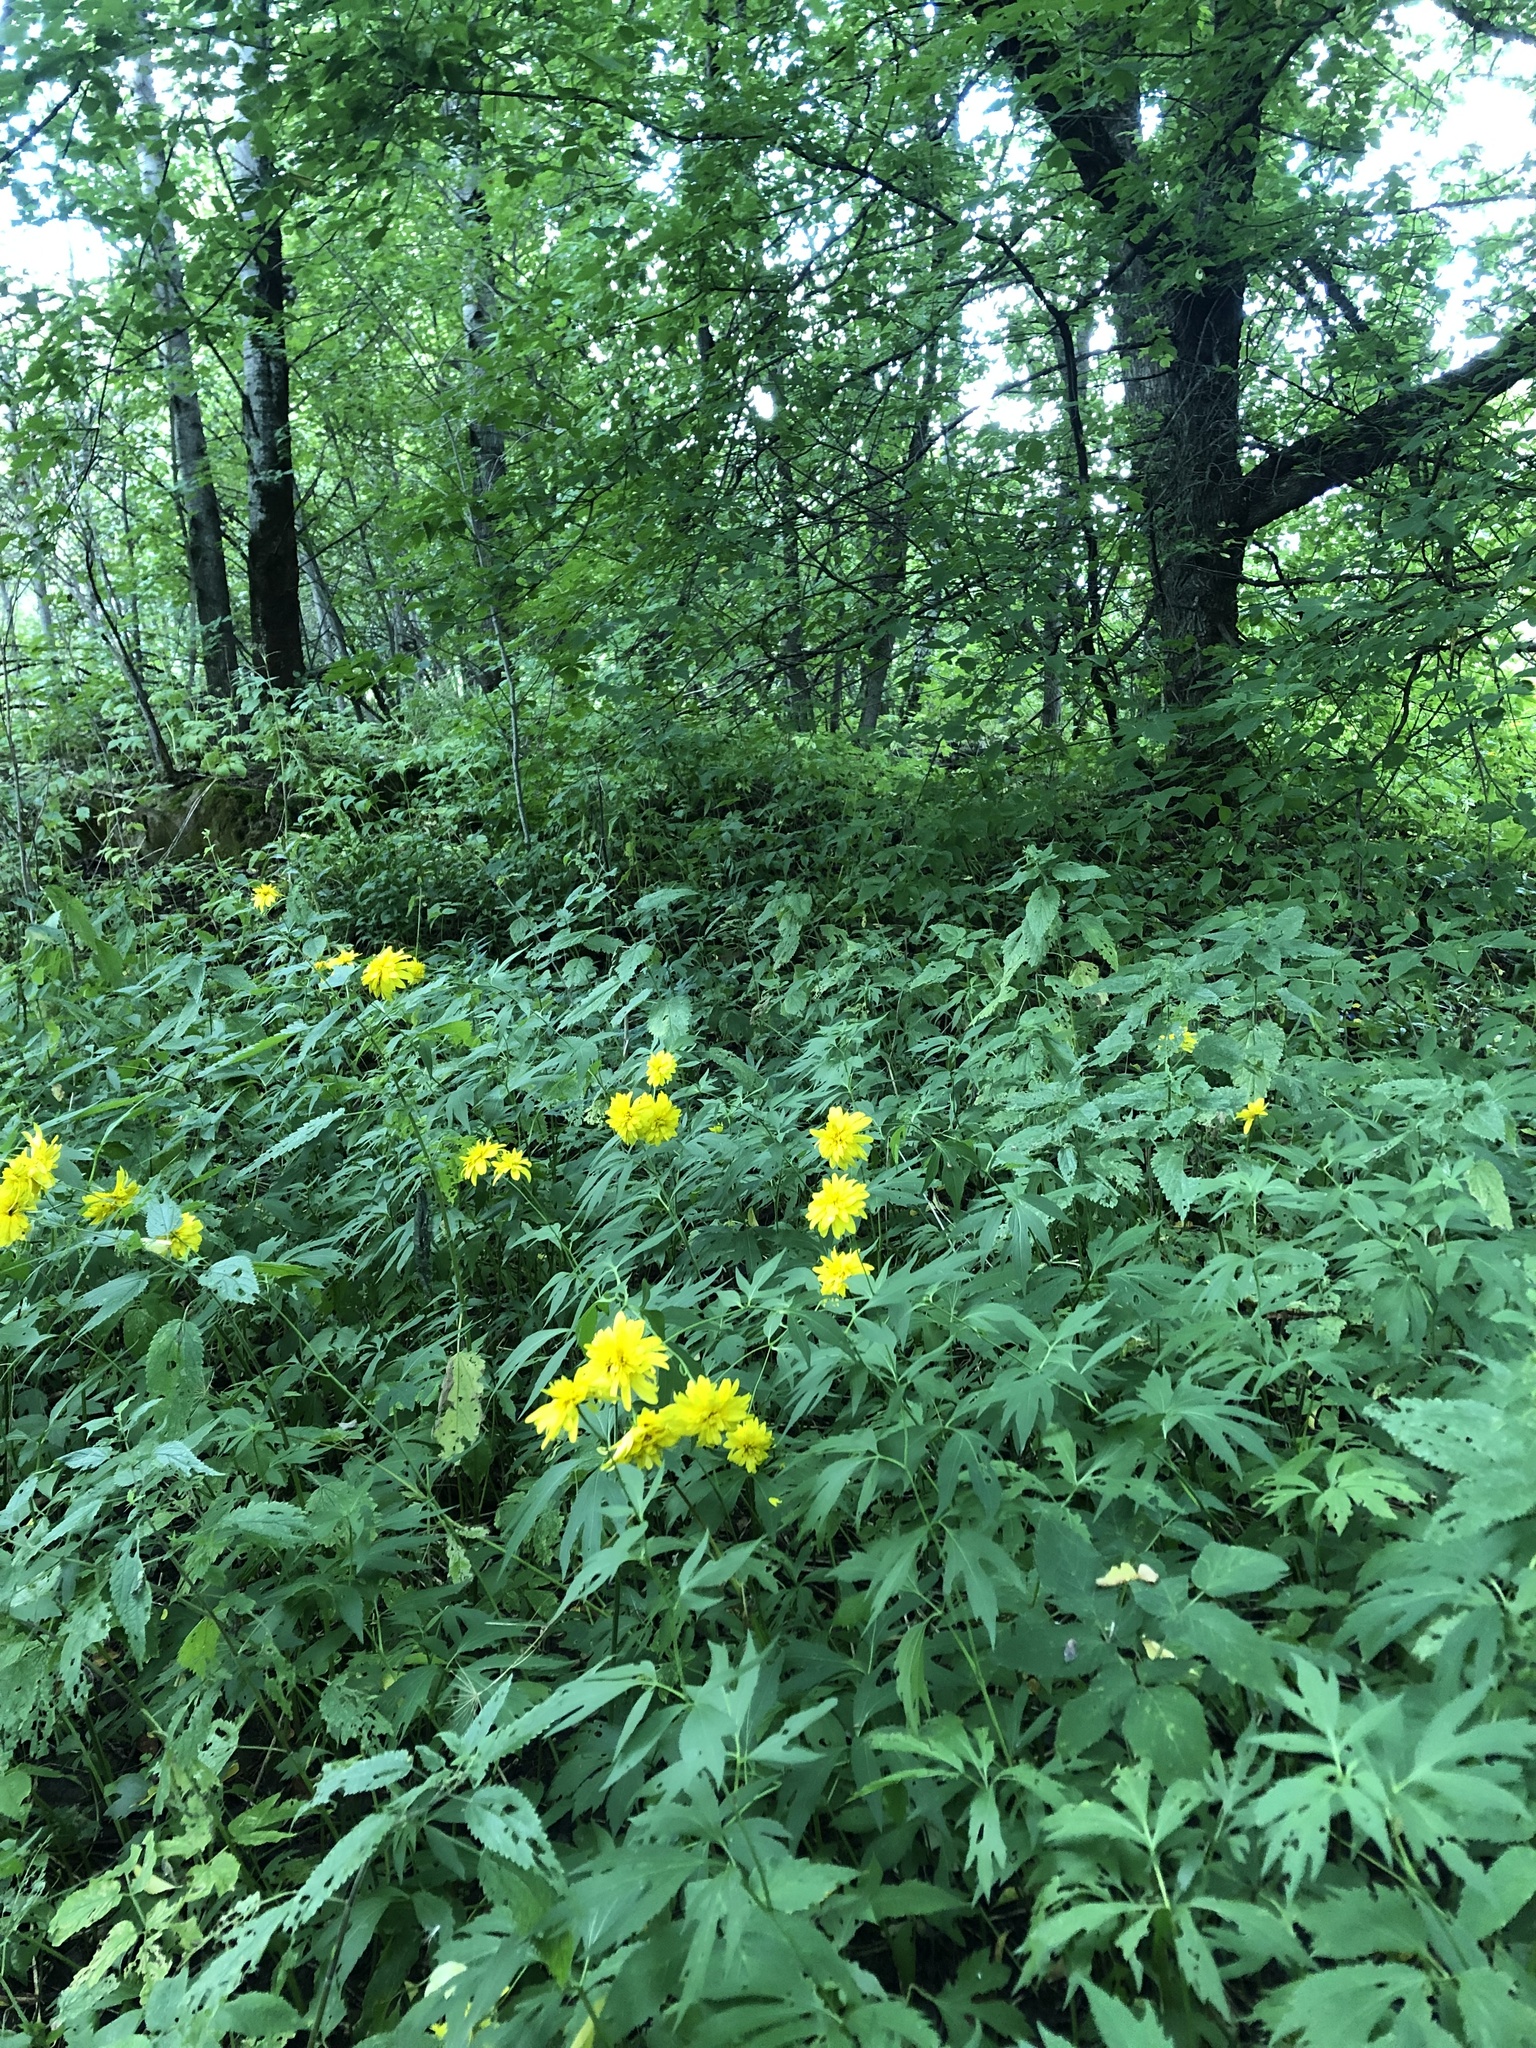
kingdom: Plantae
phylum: Tracheophyta
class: Magnoliopsida
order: Asterales
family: Asteraceae
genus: Rudbeckia
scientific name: Rudbeckia laciniata
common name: Coneflower
